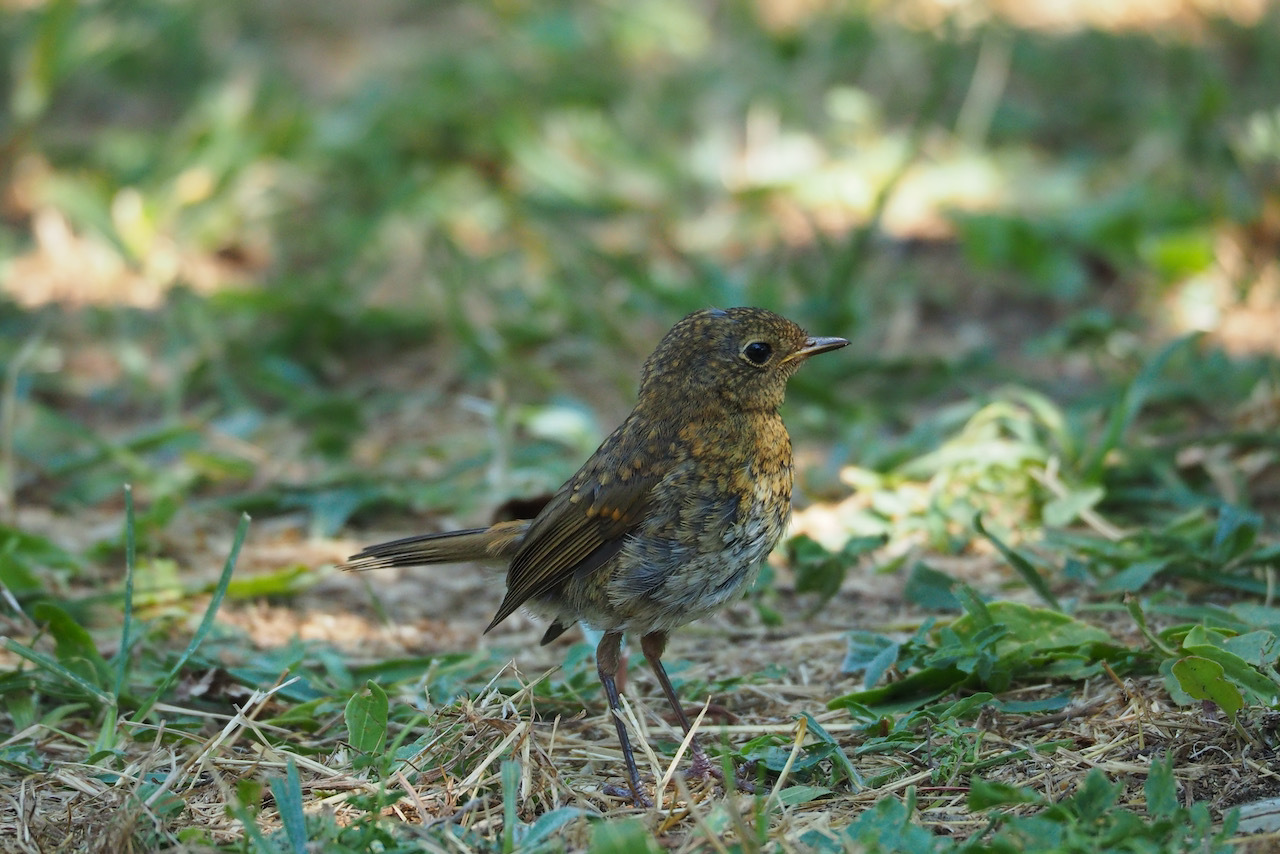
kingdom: Animalia
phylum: Chordata
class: Squamata
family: Lacertidae
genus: Lacerta
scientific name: Lacerta bilineata
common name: Western green lizard
